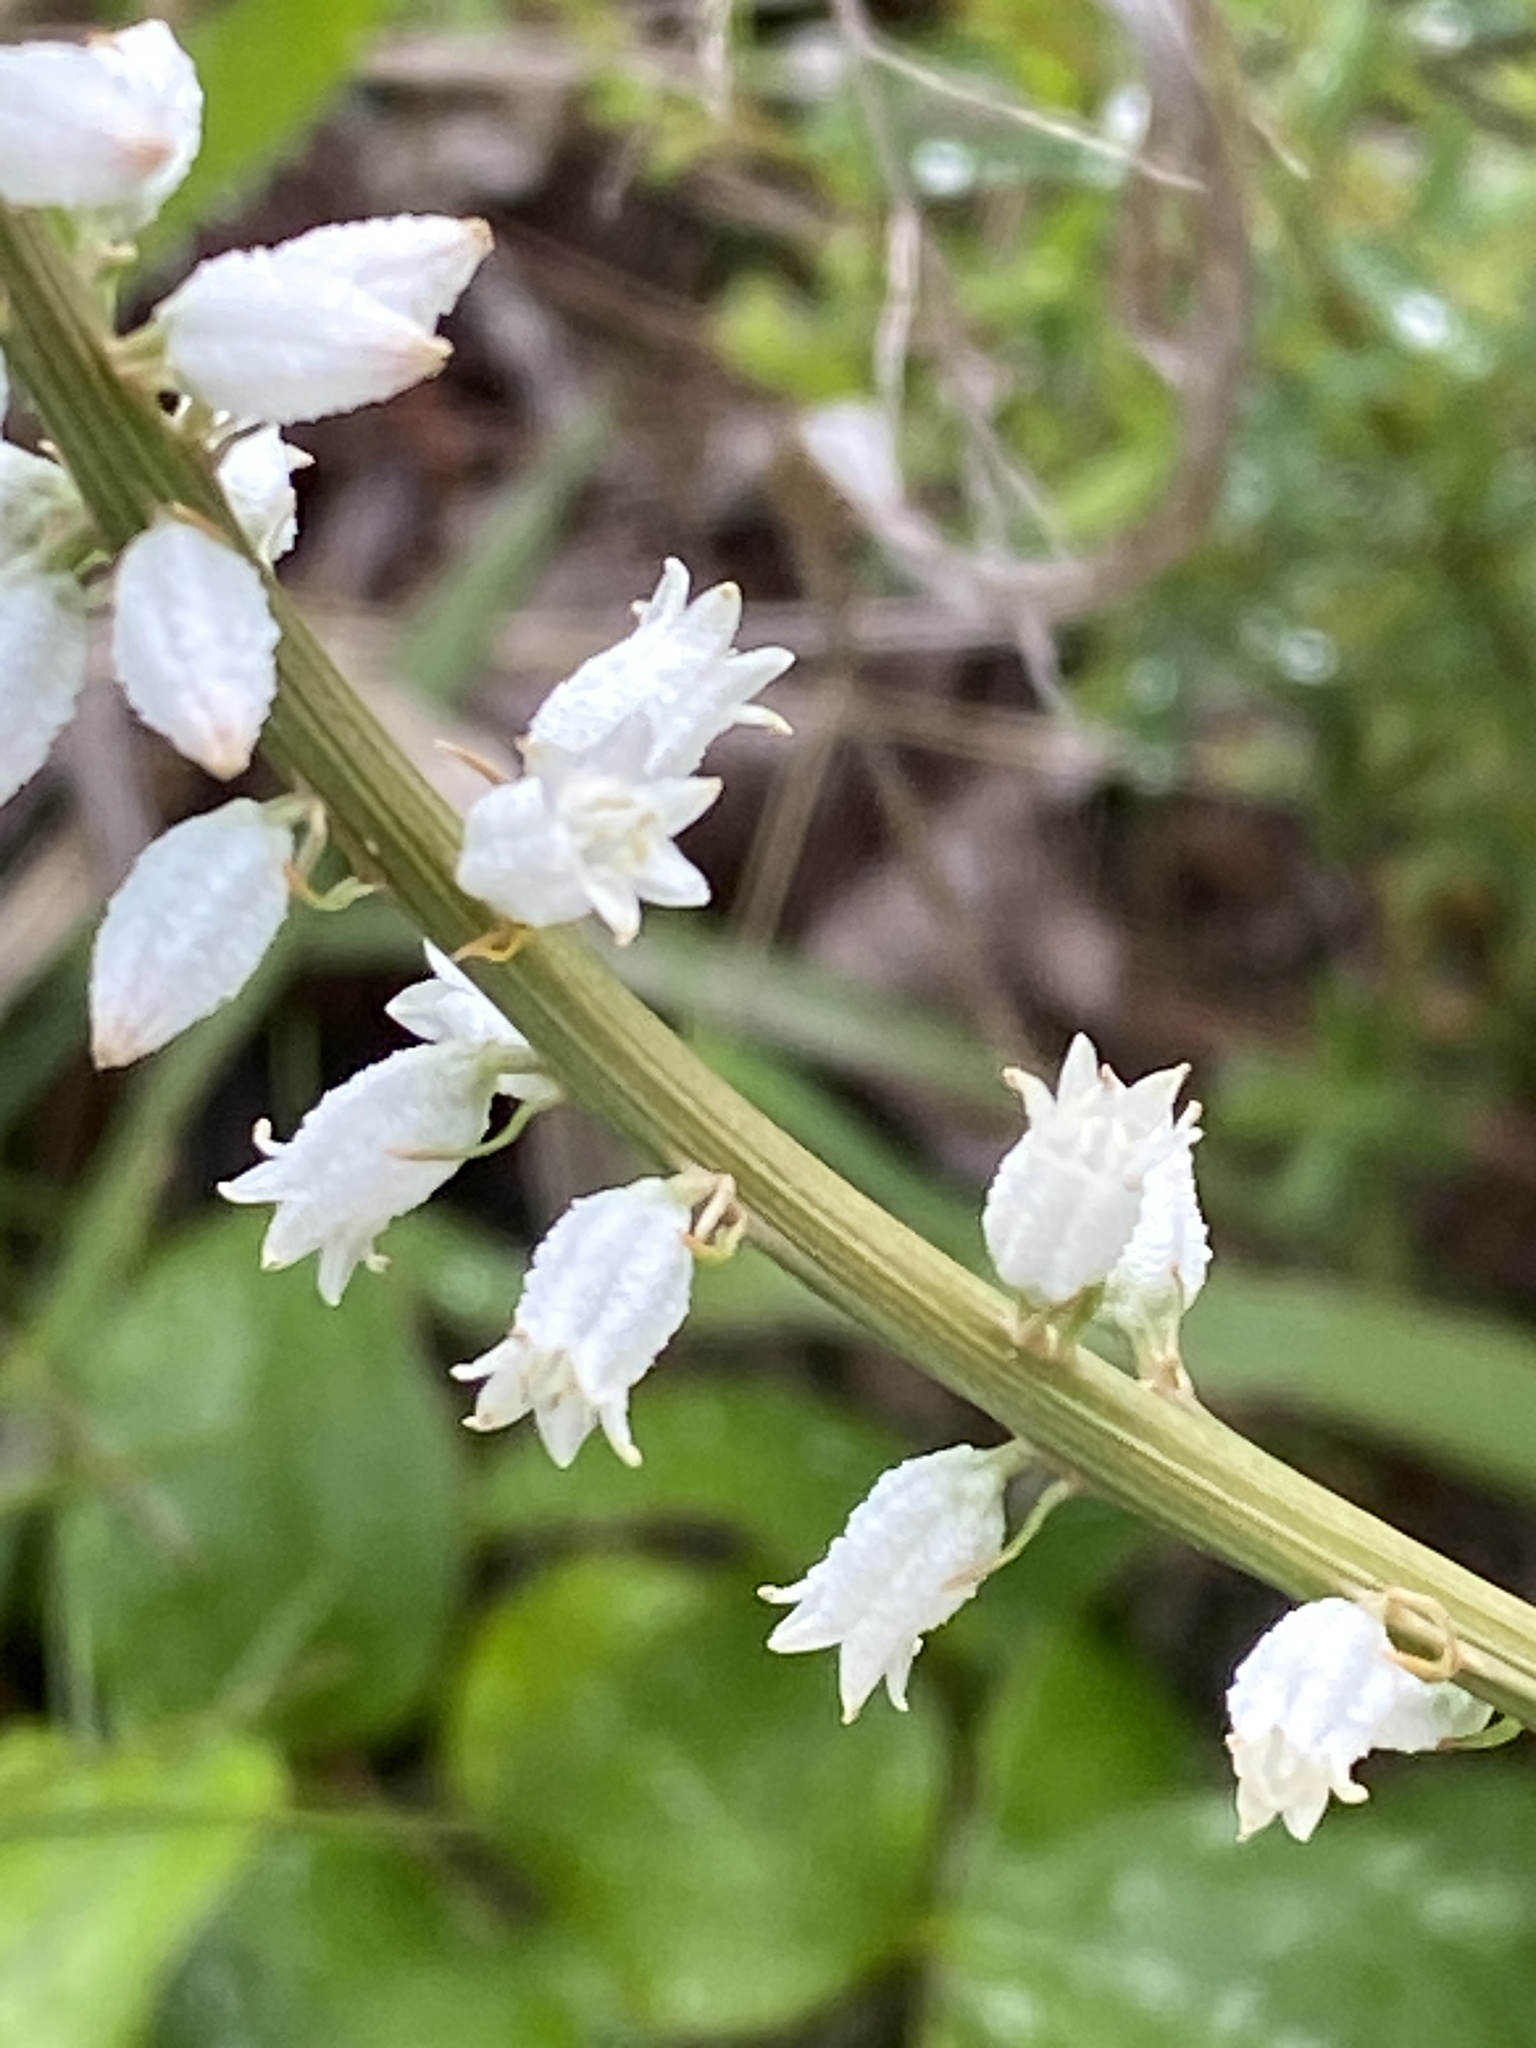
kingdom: Plantae
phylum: Tracheophyta
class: Liliopsida
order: Dioscoreales
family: Nartheciaceae
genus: Aletris
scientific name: Aletris farinosa
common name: Colicroot
